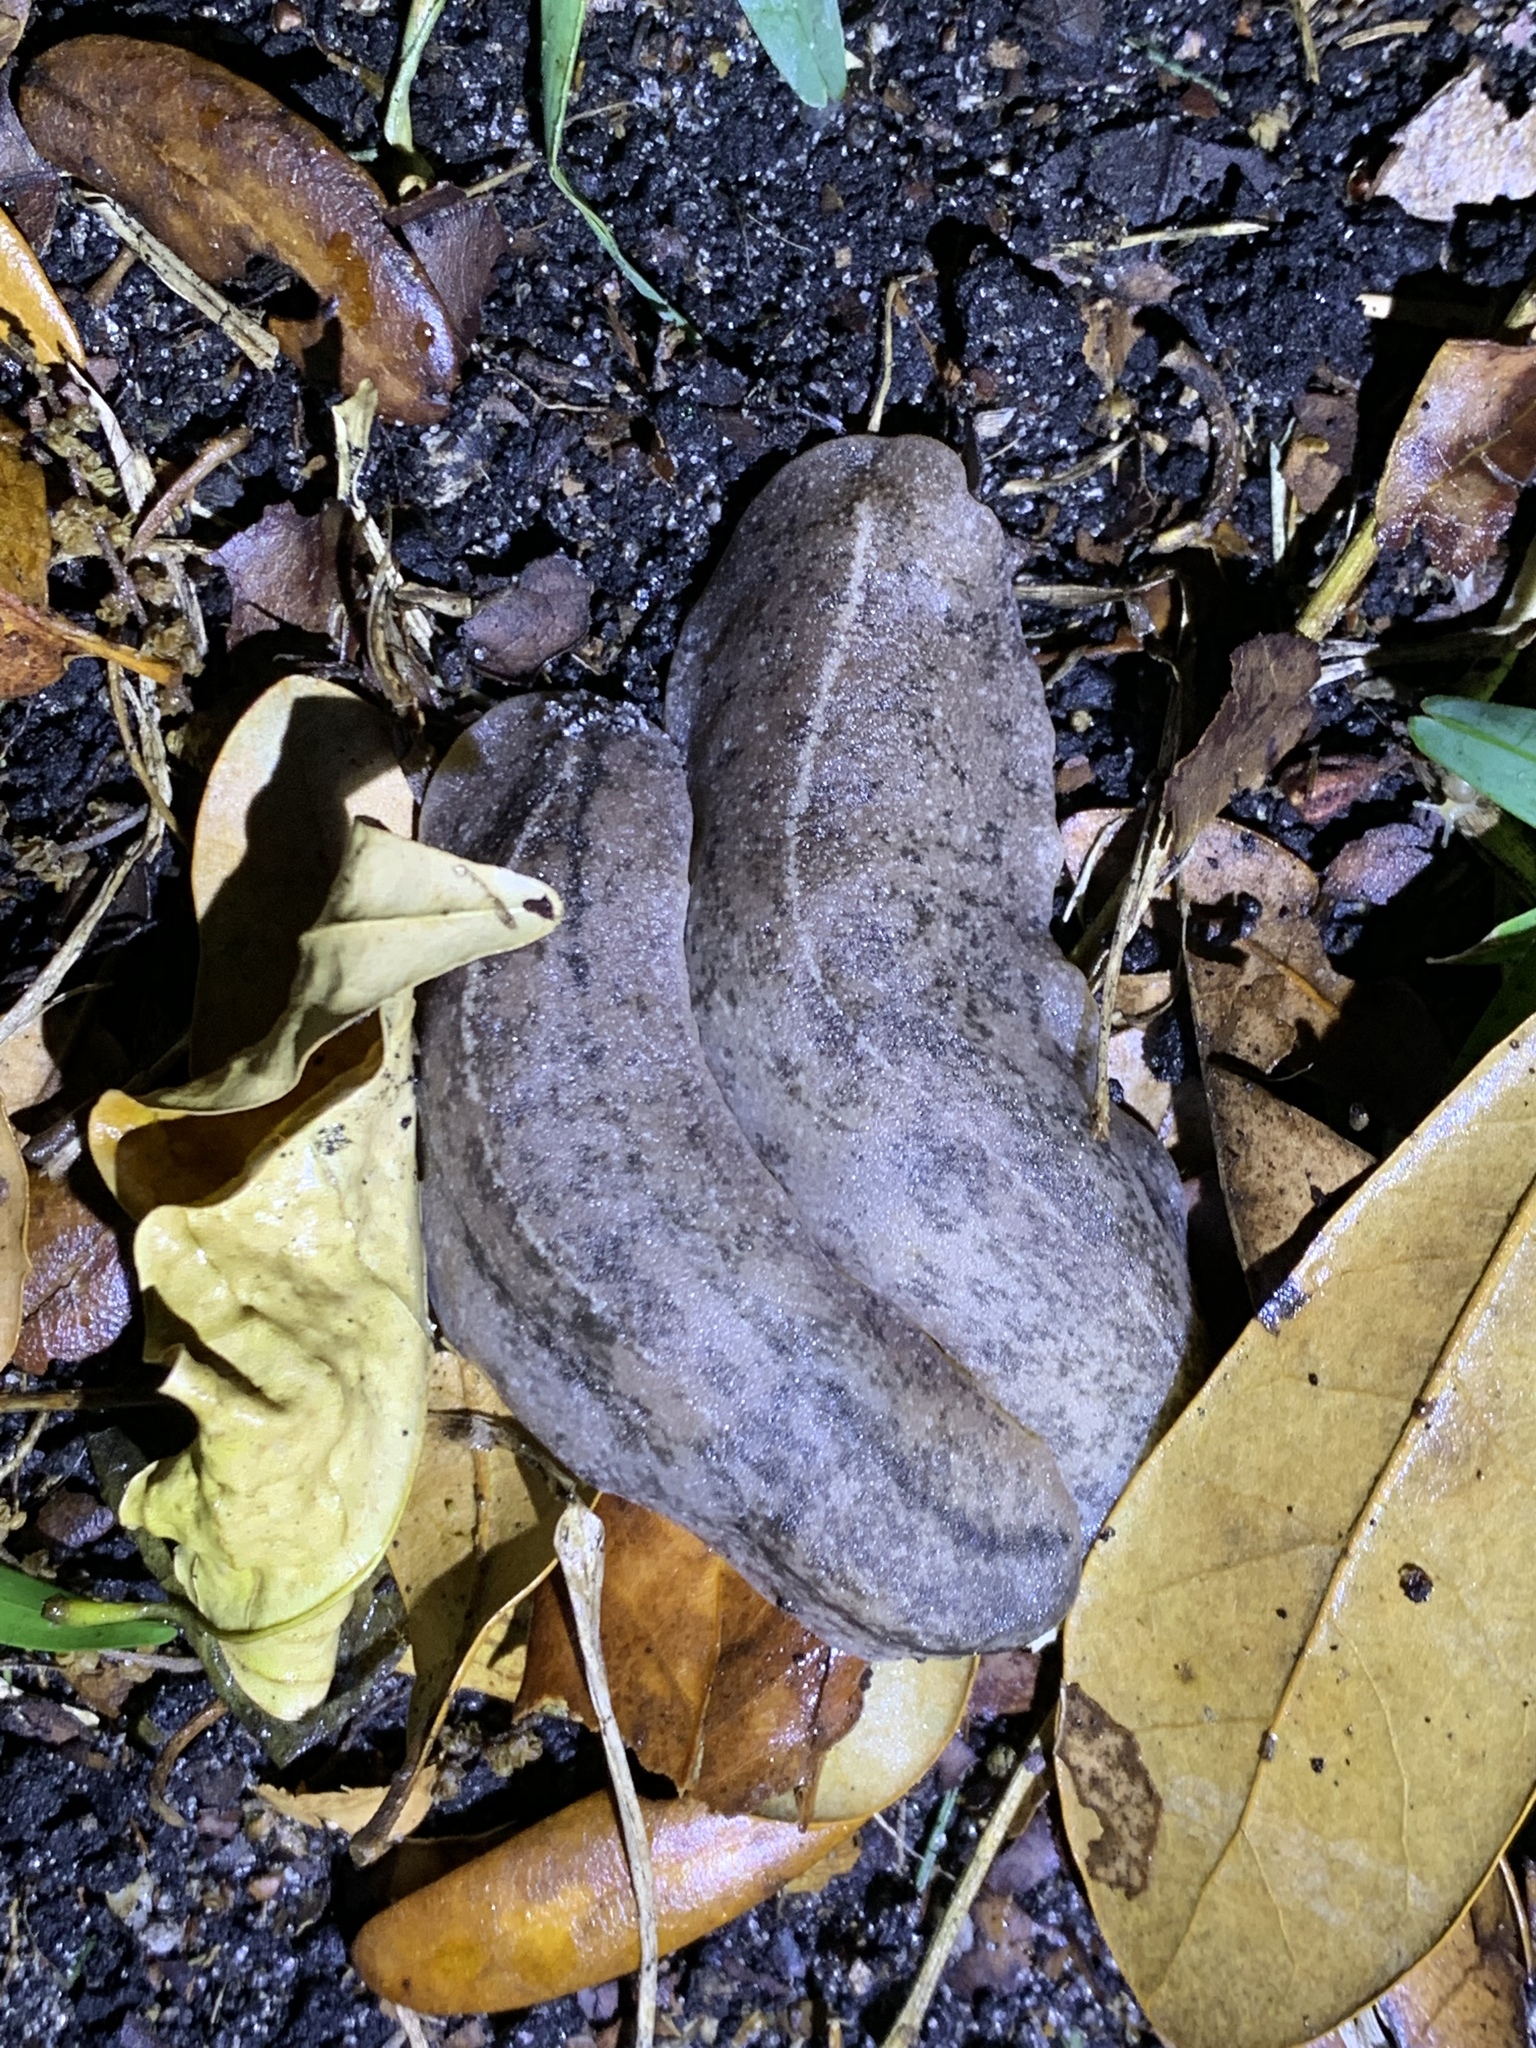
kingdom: Animalia
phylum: Mollusca
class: Gastropoda
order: Systellommatophora
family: Veronicellidae
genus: Leidyula
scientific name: Leidyula floridana
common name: Florida leatherleaf
